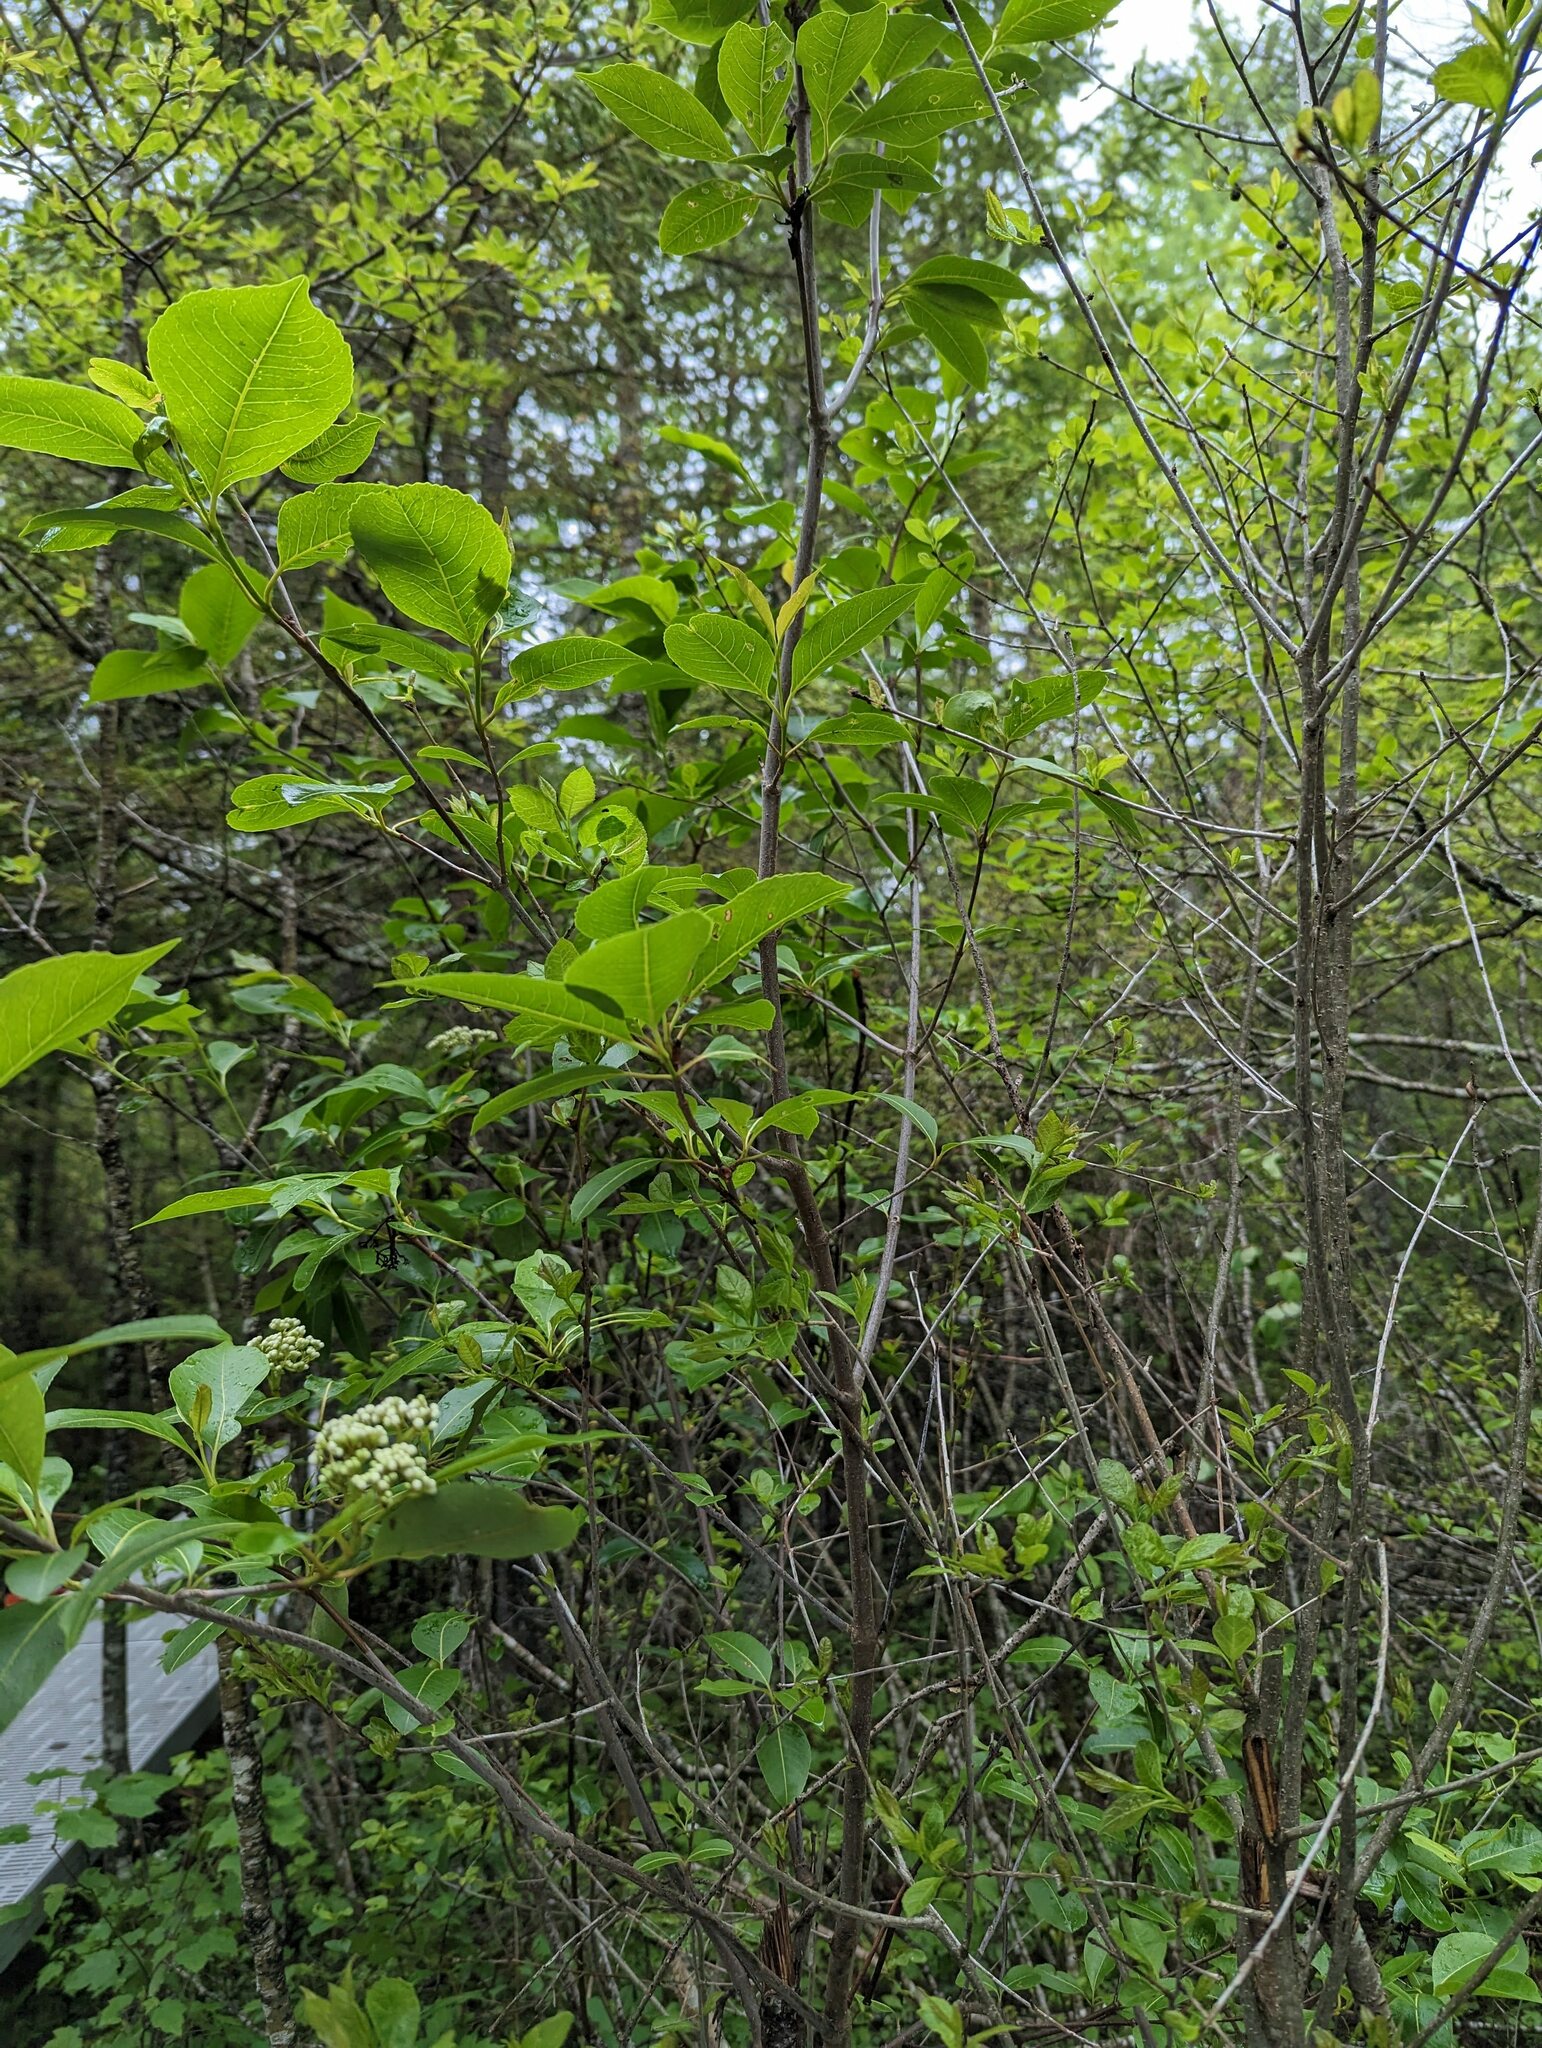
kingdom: Plantae
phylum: Tracheophyta
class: Magnoliopsida
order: Dipsacales
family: Viburnaceae
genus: Viburnum
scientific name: Viburnum cassinoides
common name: Swamp haw
